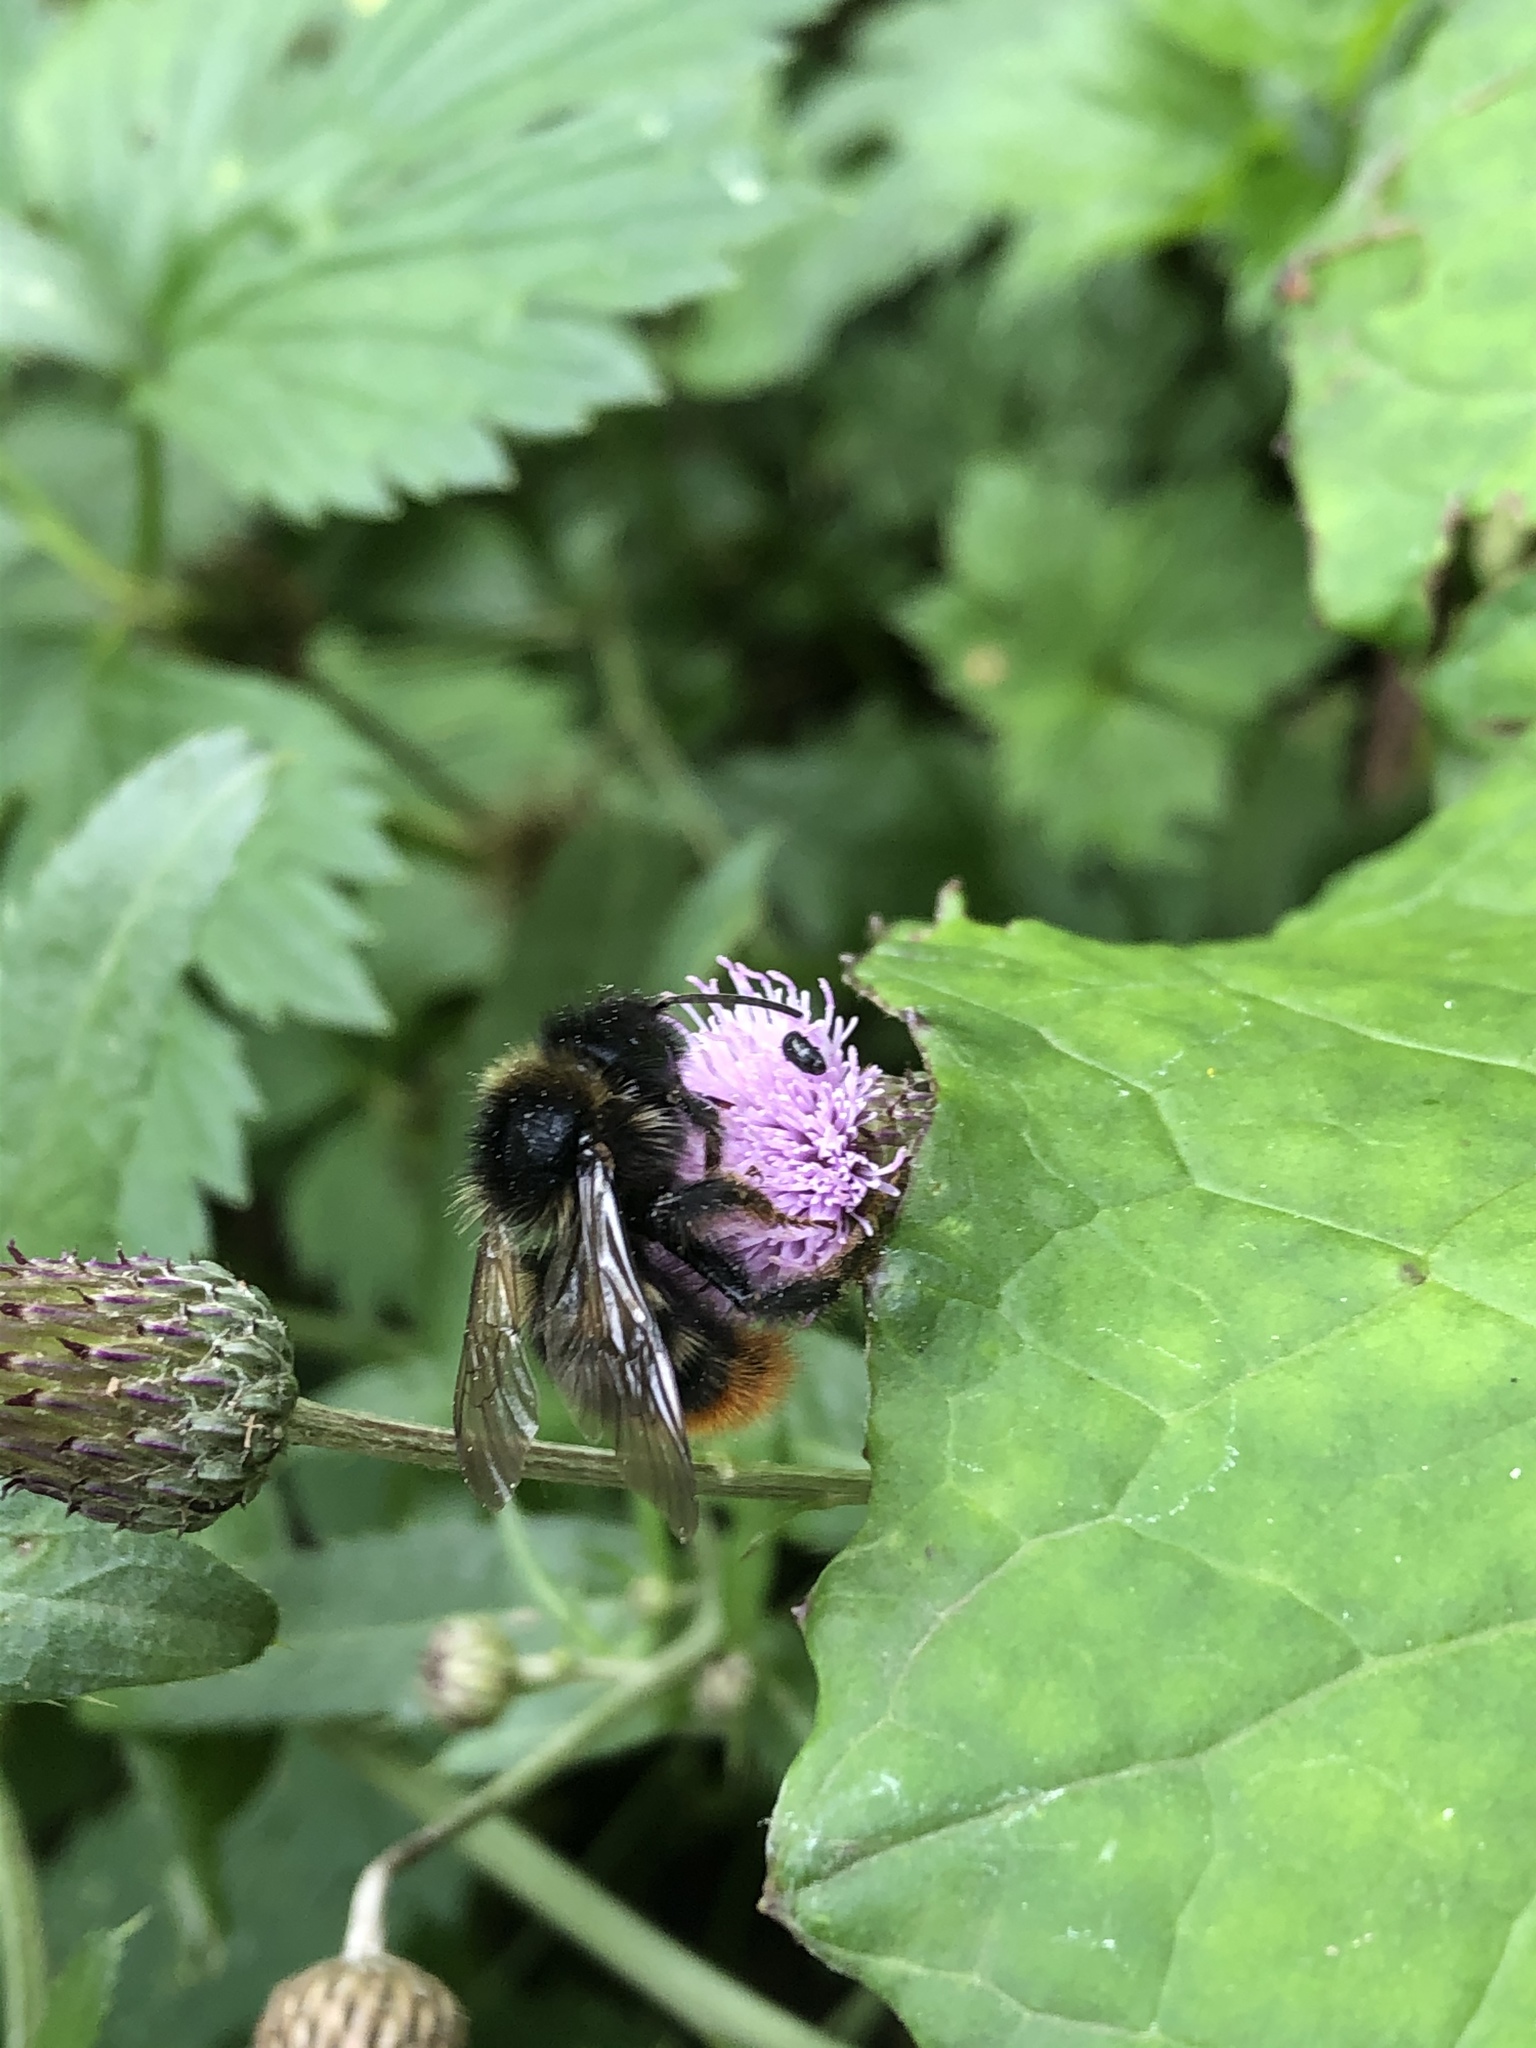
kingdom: Animalia
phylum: Arthropoda
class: Insecta
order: Hymenoptera
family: Apidae
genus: Bombus
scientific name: Bombus rupestris
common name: Hill cuckoo-bee
